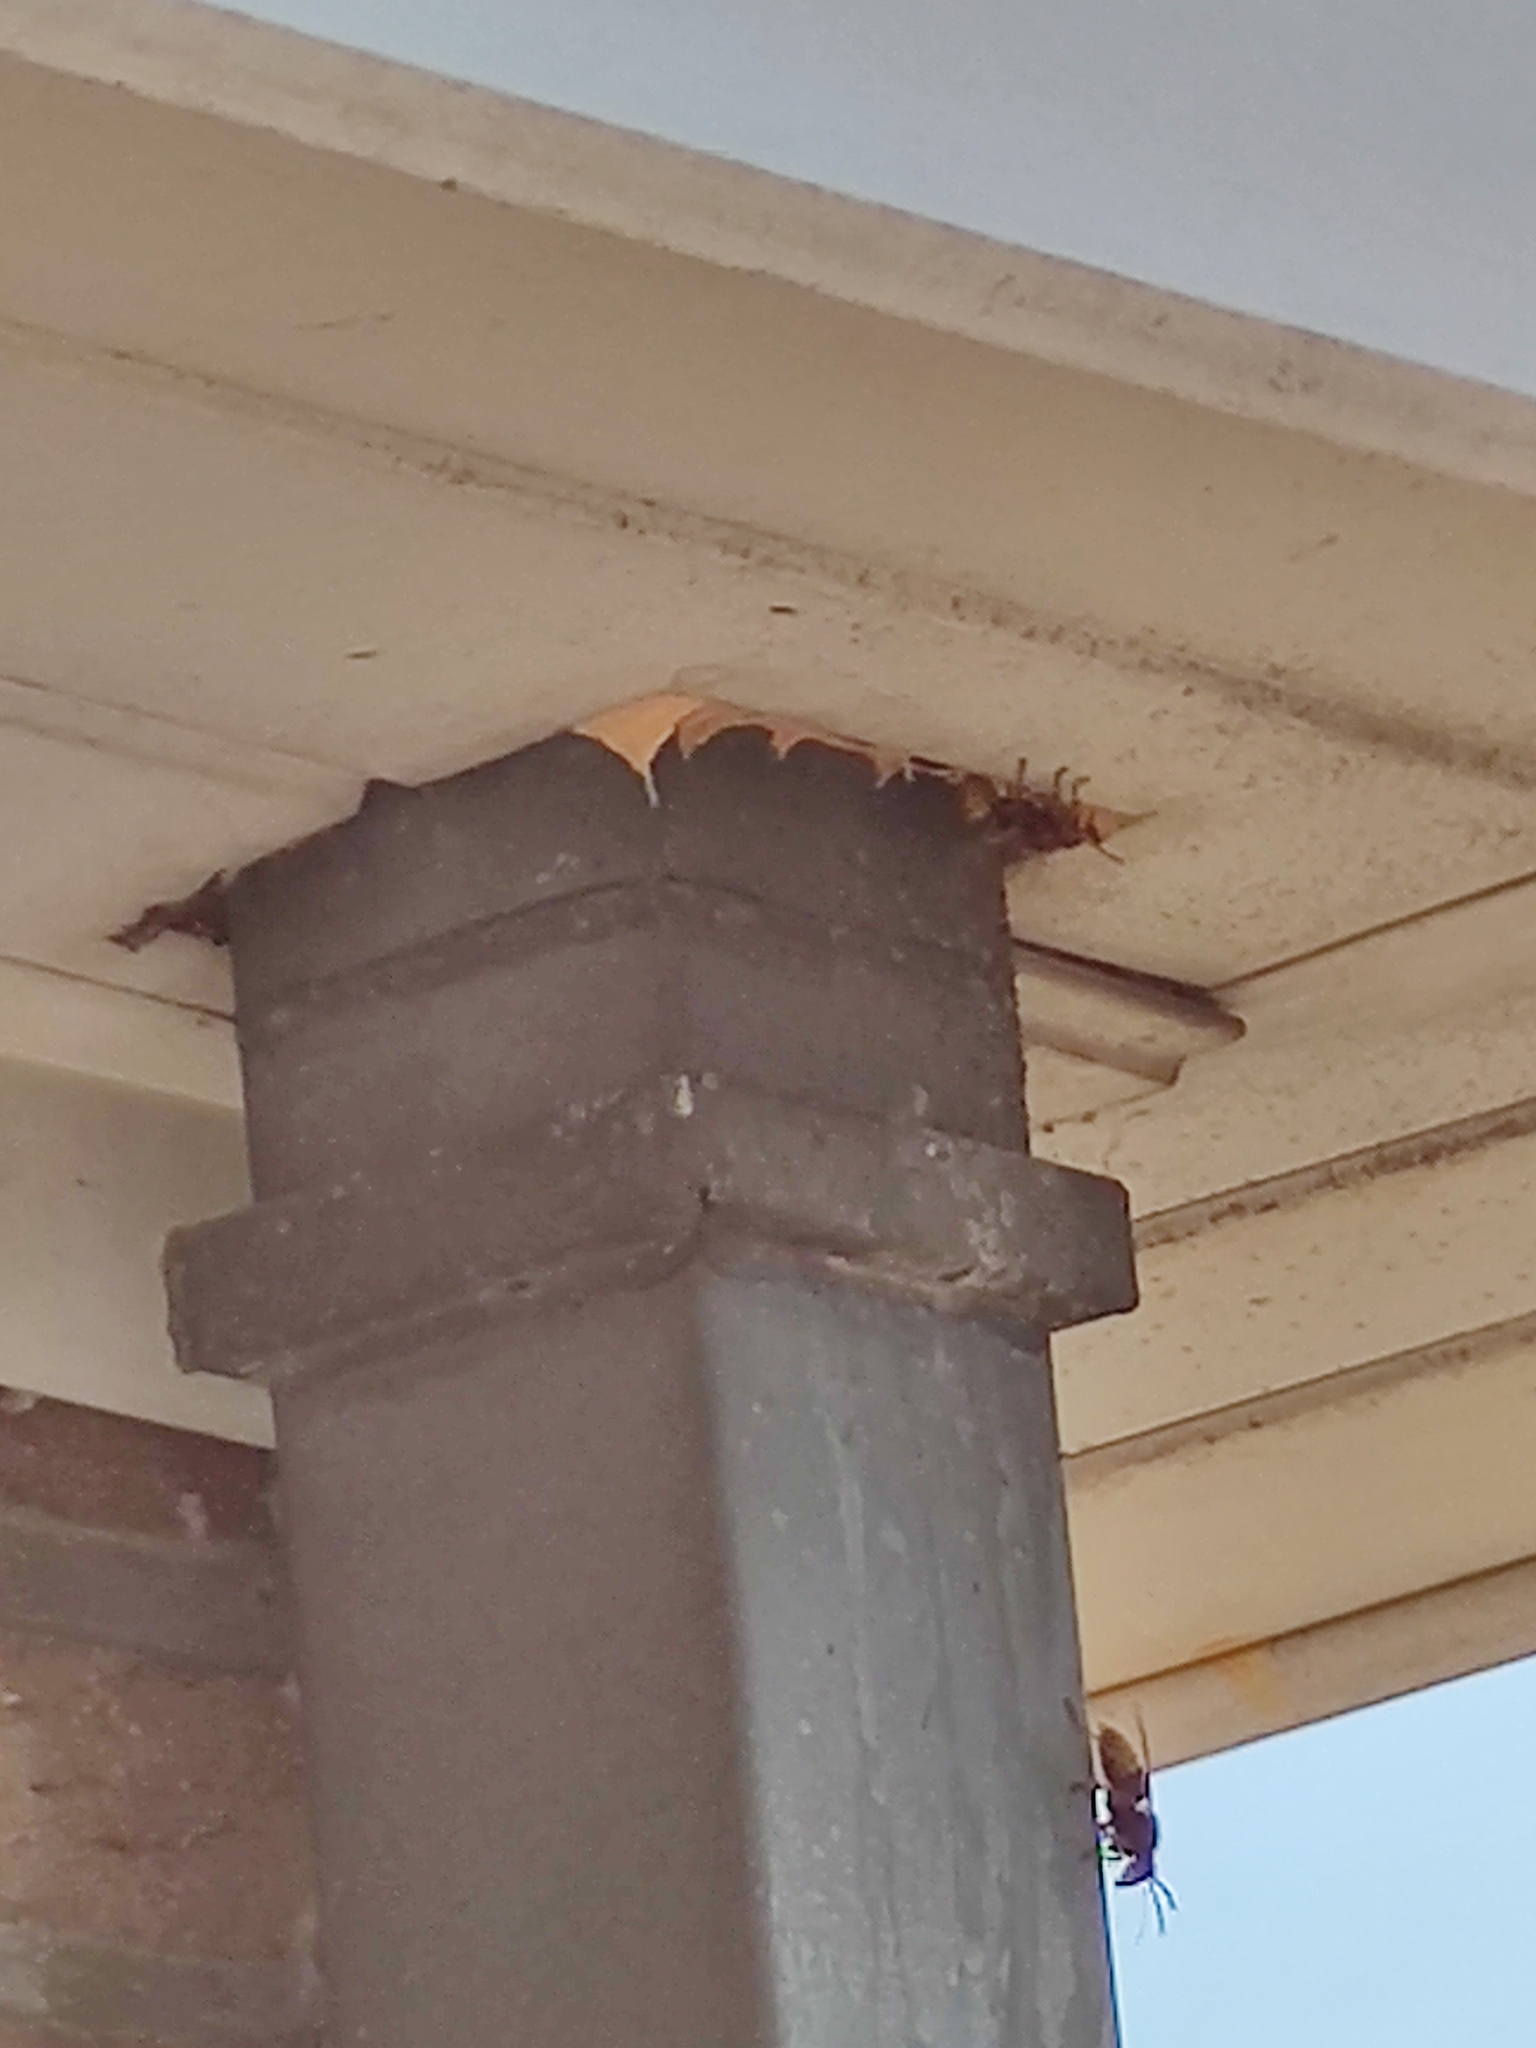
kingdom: Animalia
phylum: Arthropoda
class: Insecta
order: Hymenoptera
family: Vespidae
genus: Vespa
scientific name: Vespa crabro
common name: Hornet
